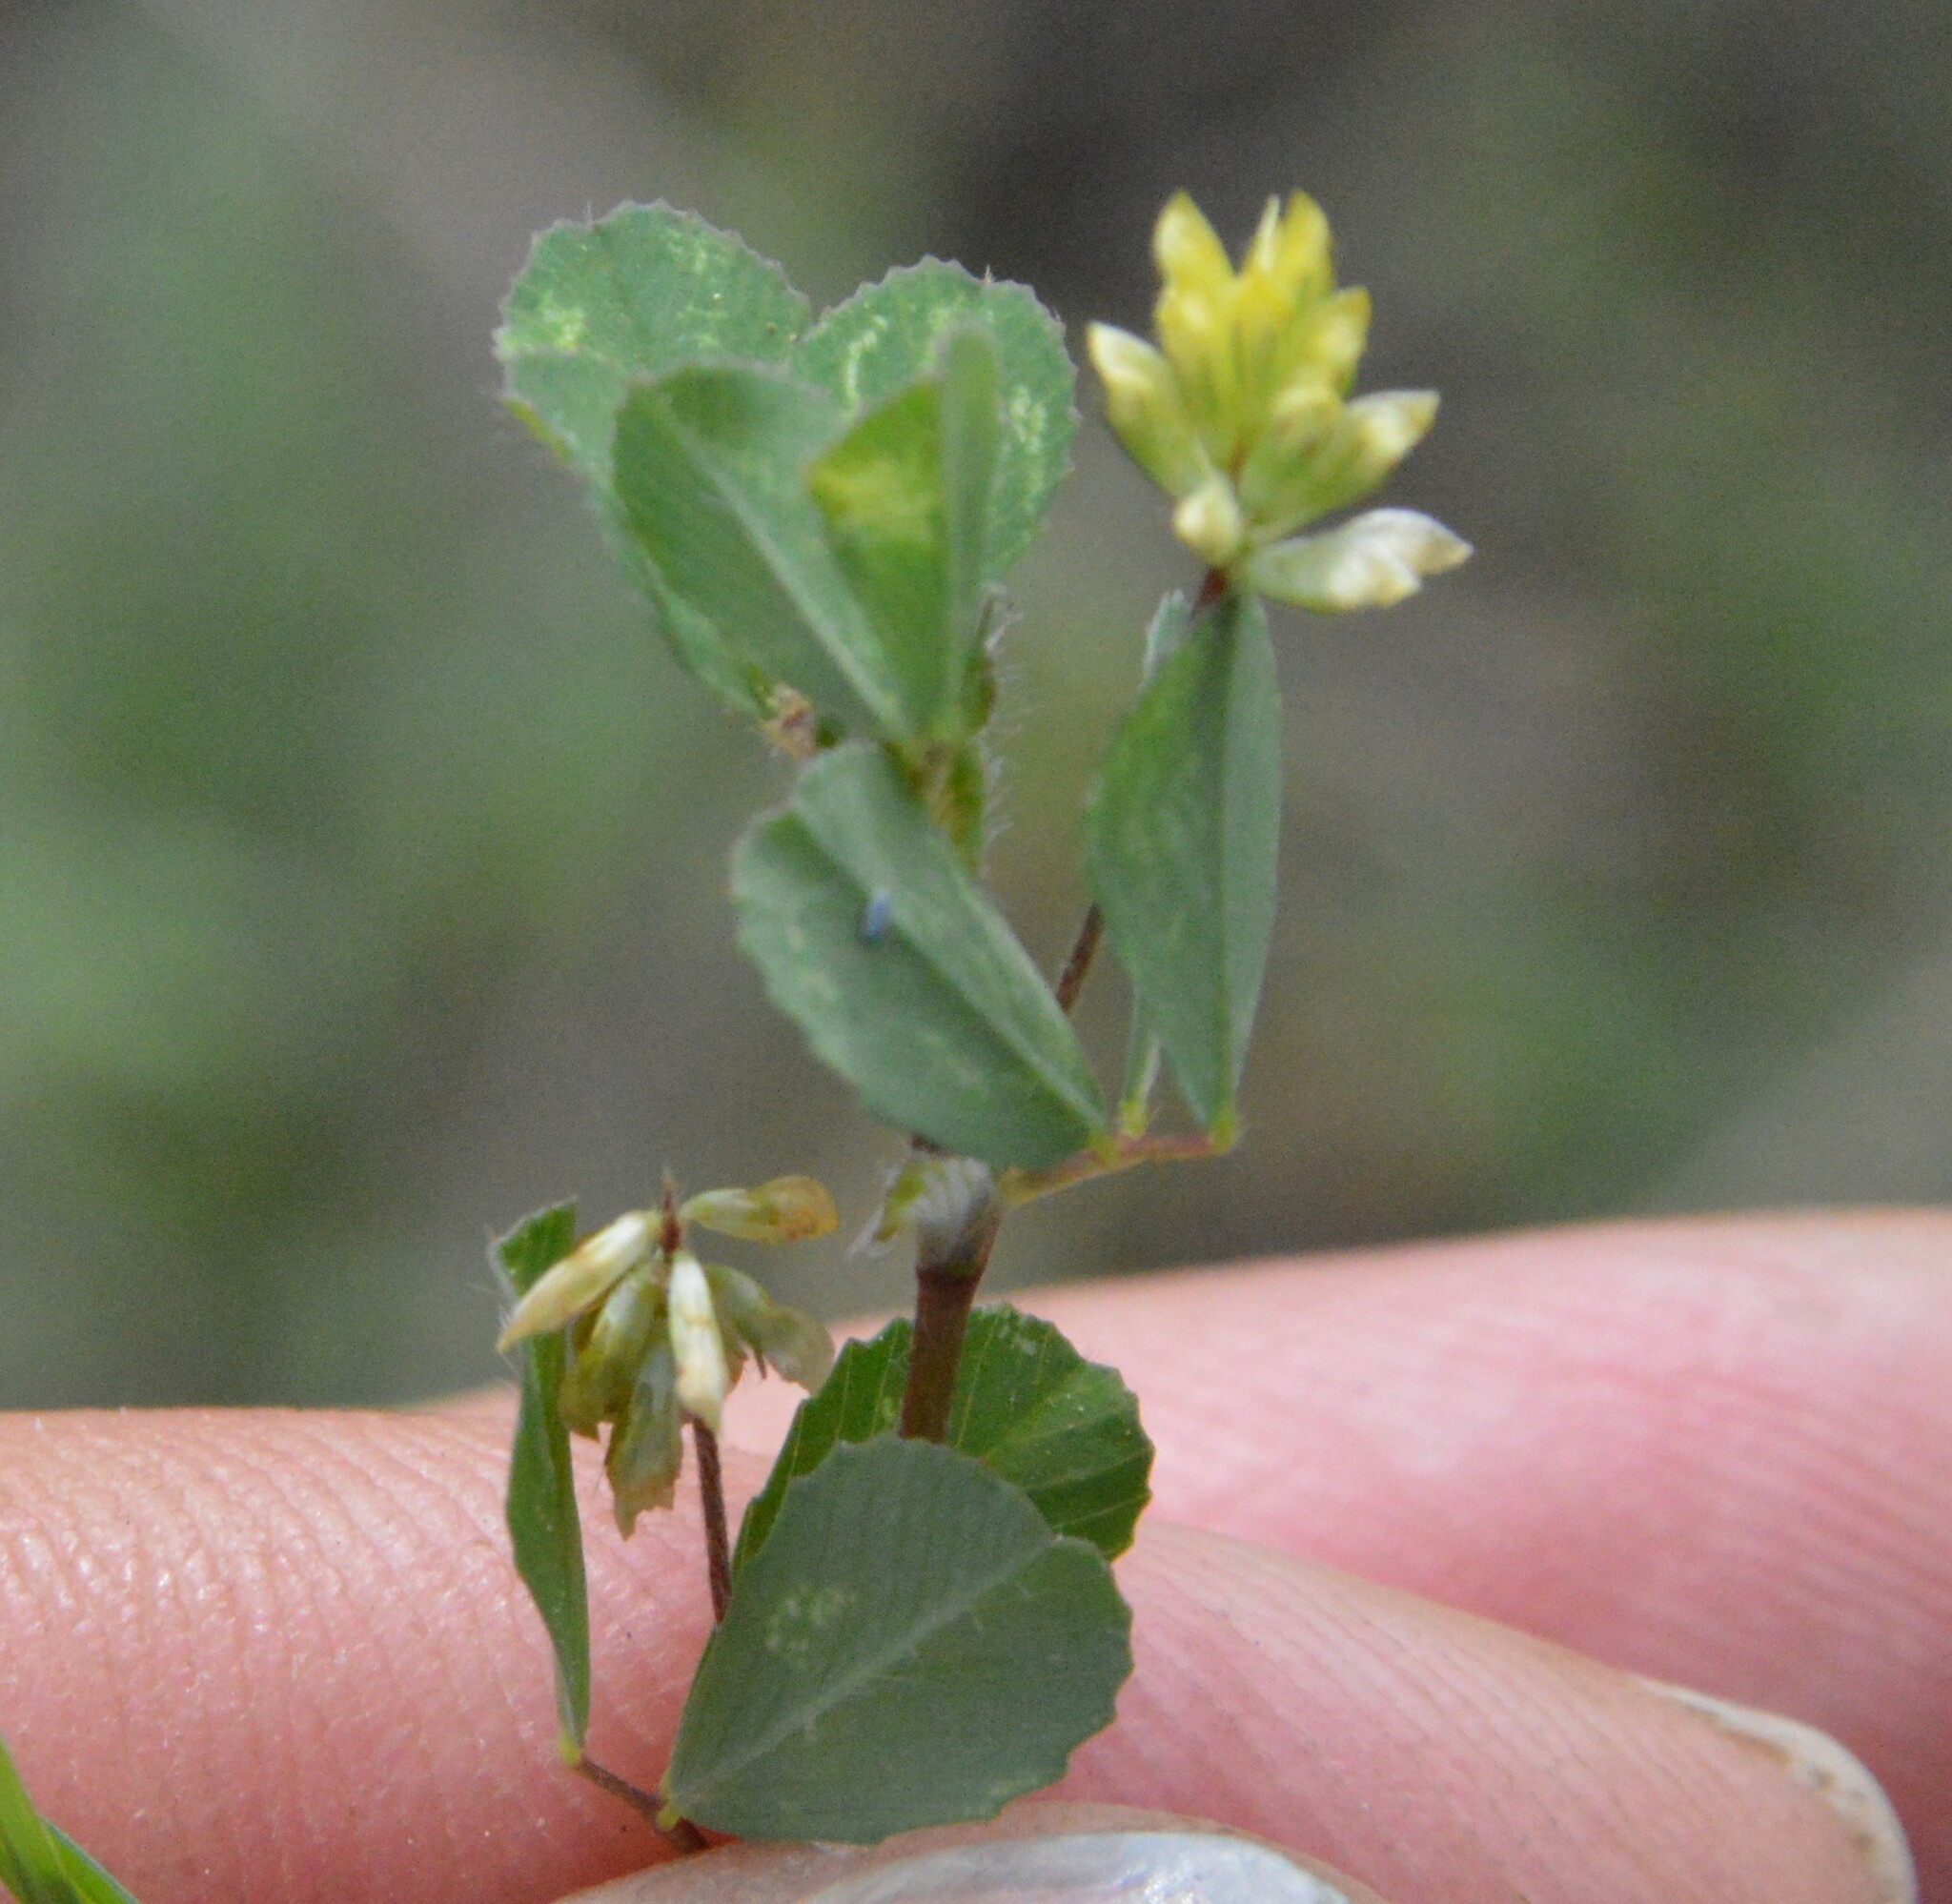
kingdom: Plantae
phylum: Tracheophyta
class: Magnoliopsida
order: Fabales
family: Fabaceae
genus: Trifolium
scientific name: Trifolium dubium
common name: Suckling clover
